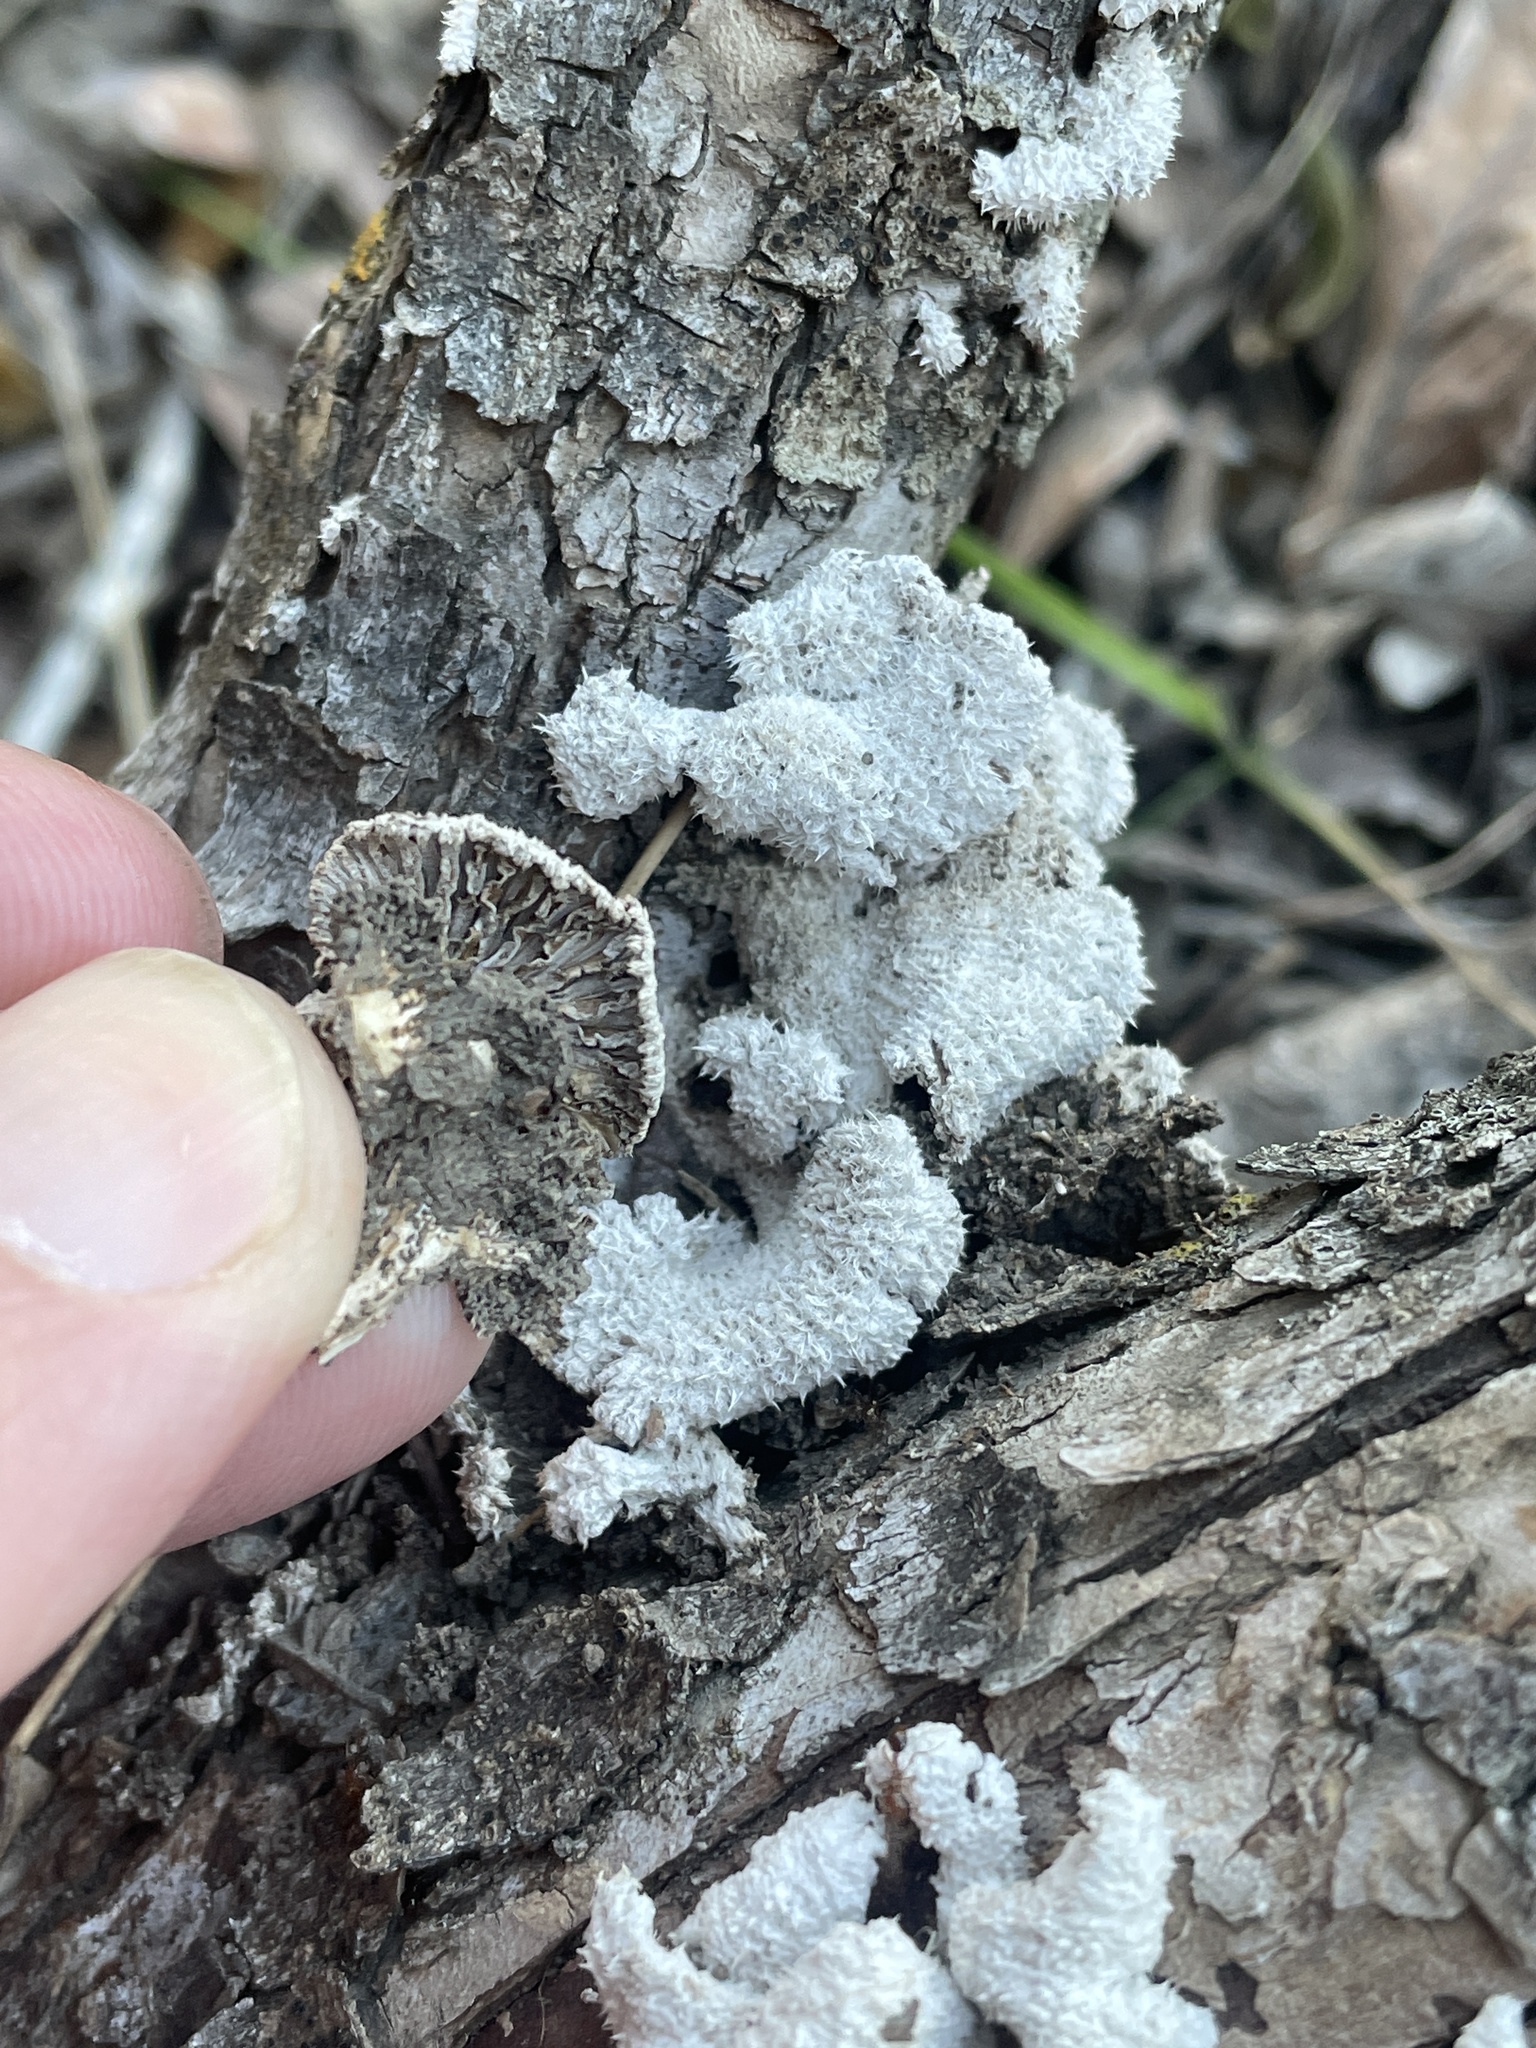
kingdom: Fungi
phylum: Basidiomycota
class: Agaricomycetes
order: Agaricales
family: Schizophyllaceae
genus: Schizophyllum
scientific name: Schizophyllum commune
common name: Common porecrust
